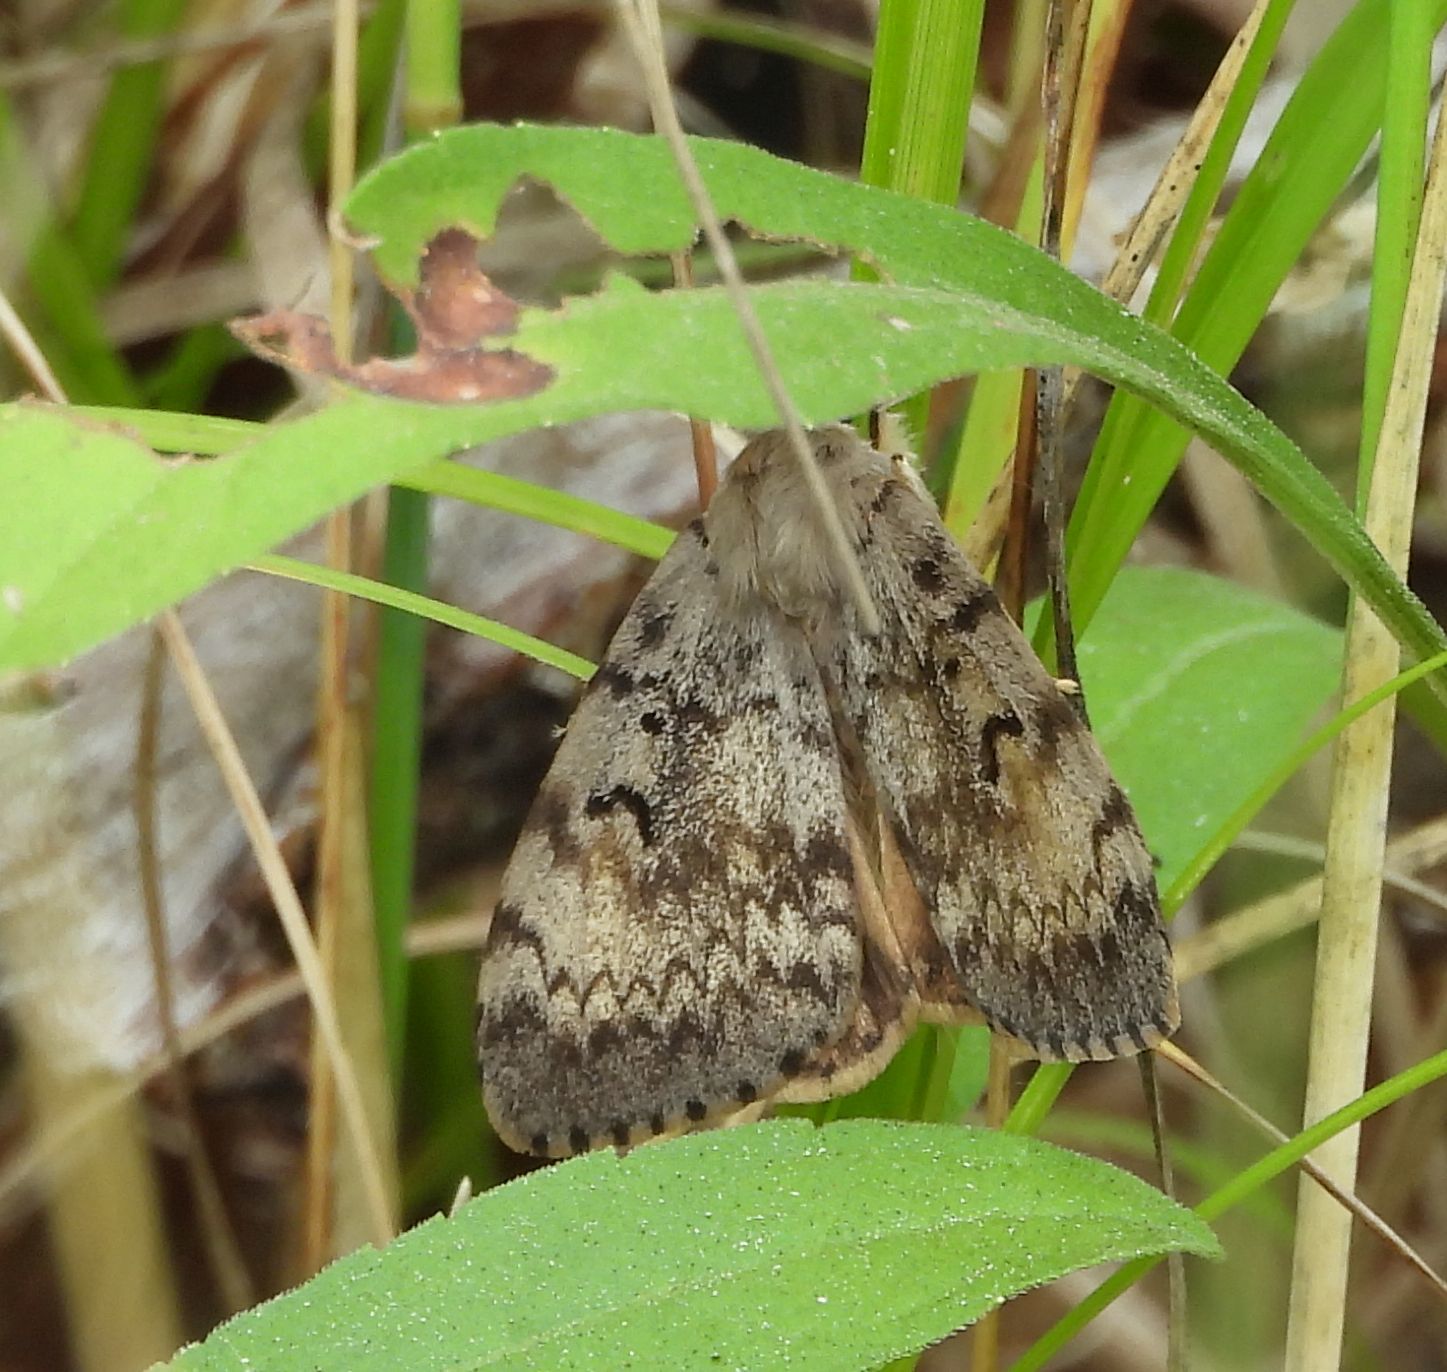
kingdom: Animalia
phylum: Arthropoda
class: Insecta
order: Lepidoptera
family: Erebidae
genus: Lymantria
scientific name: Lymantria dispar
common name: Gypsy moth
